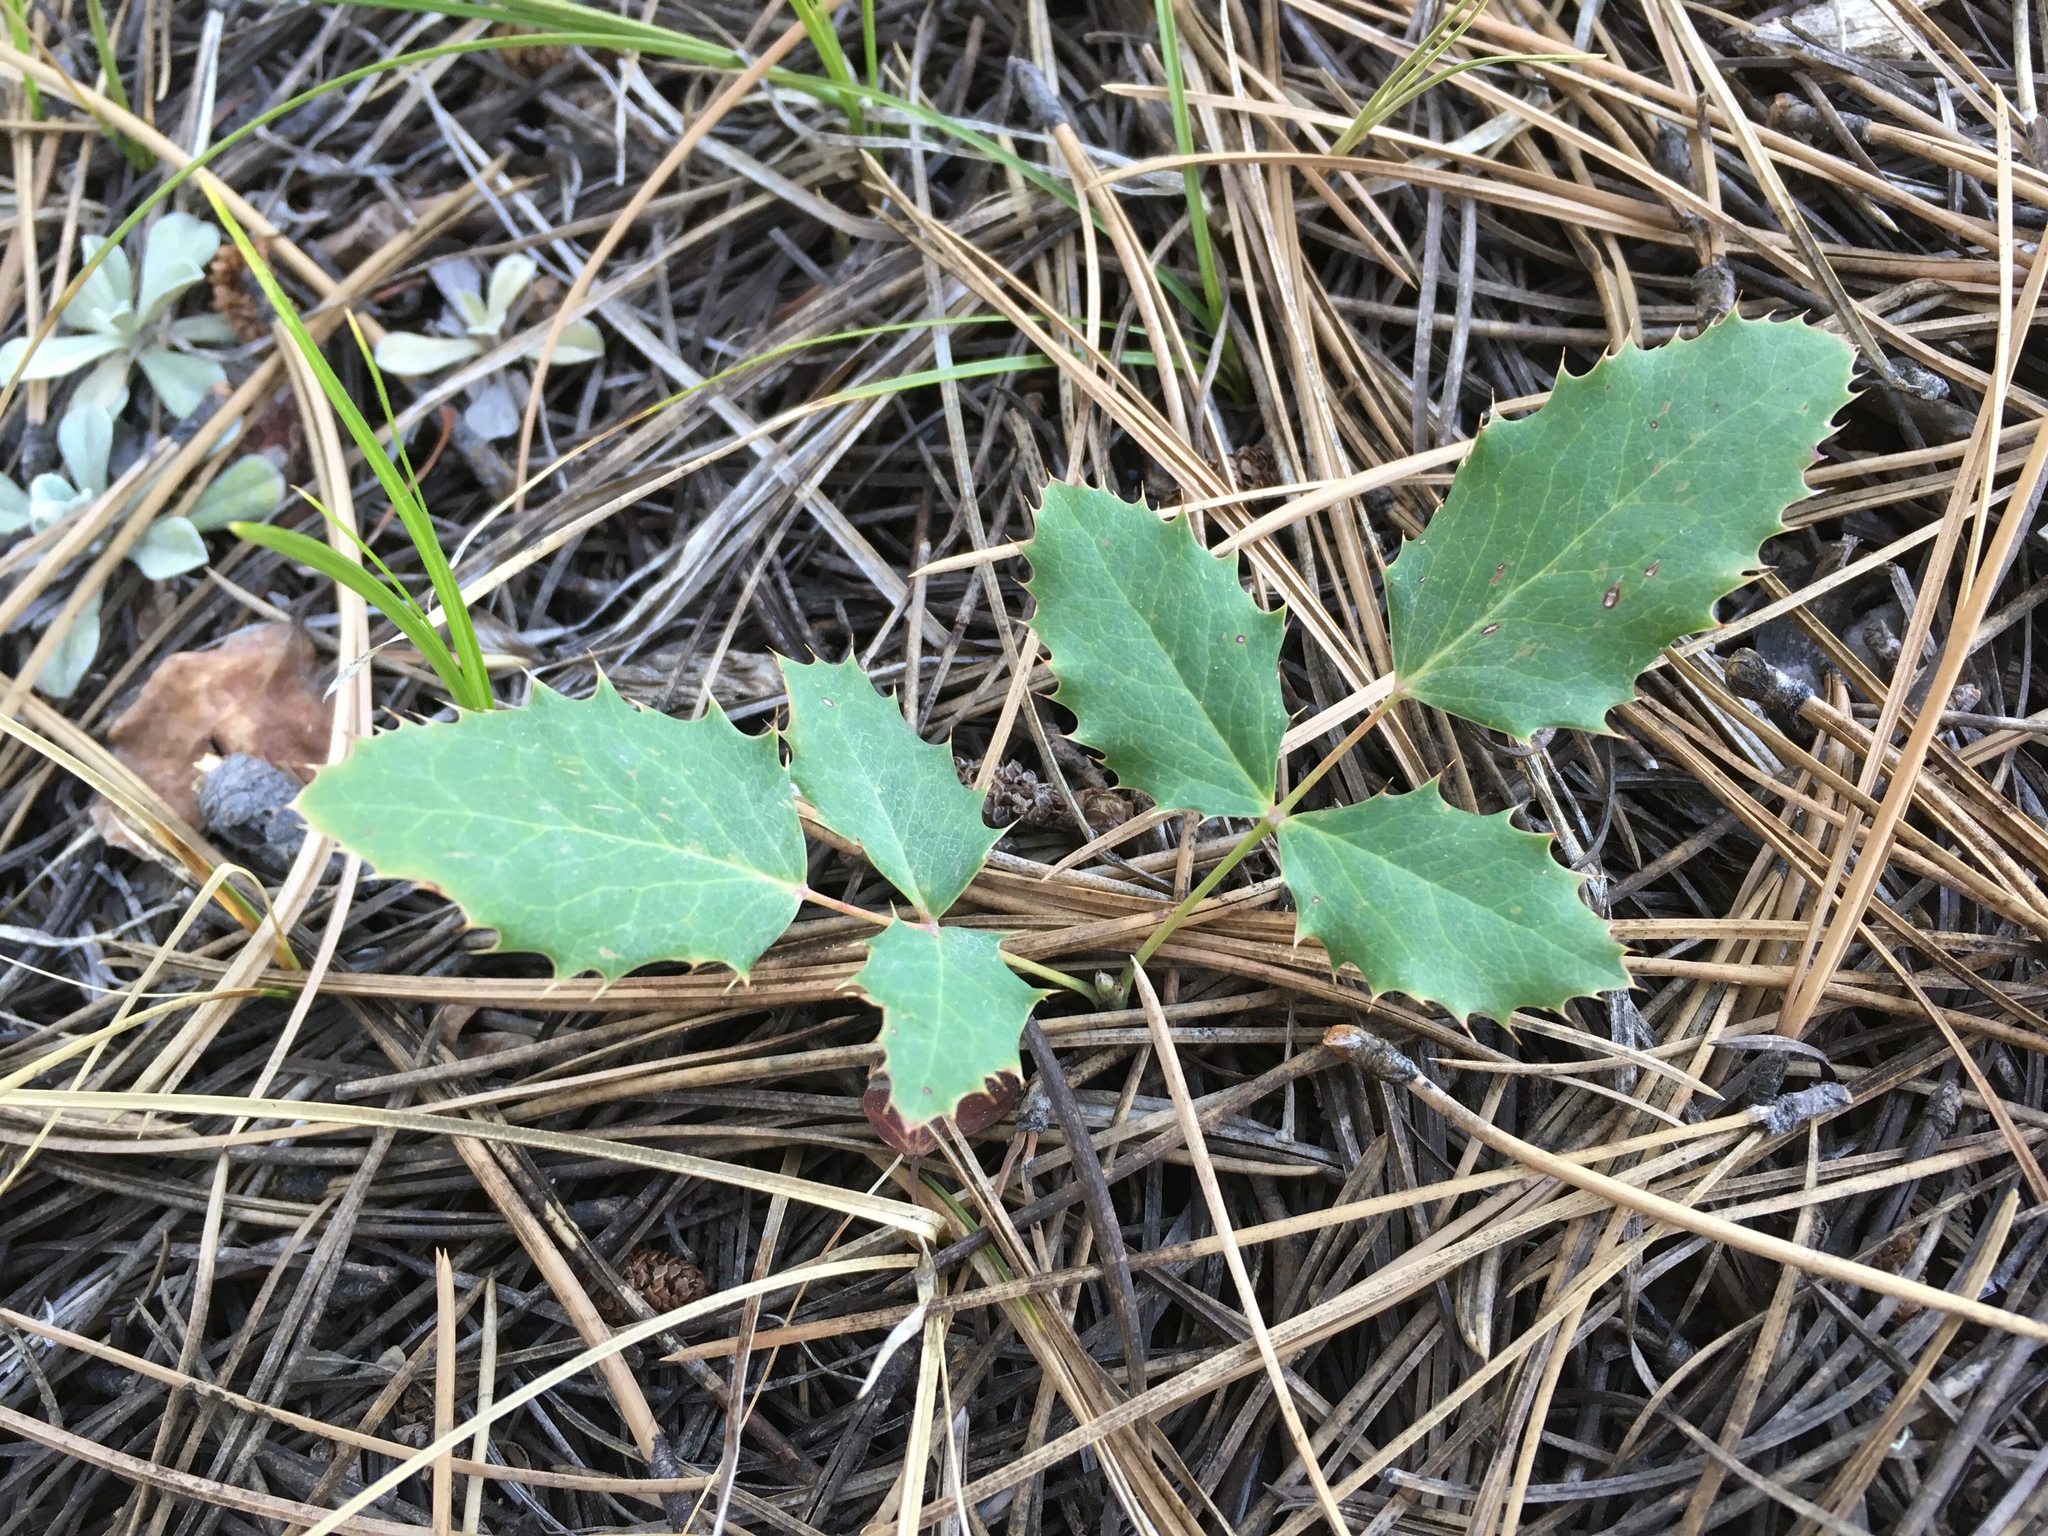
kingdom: Plantae
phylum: Tracheophyta
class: Magnoliopsida
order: Ranunculales
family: Berberidaceae
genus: Mahonia
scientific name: Mahonia repens
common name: Creeping oregon-grape
